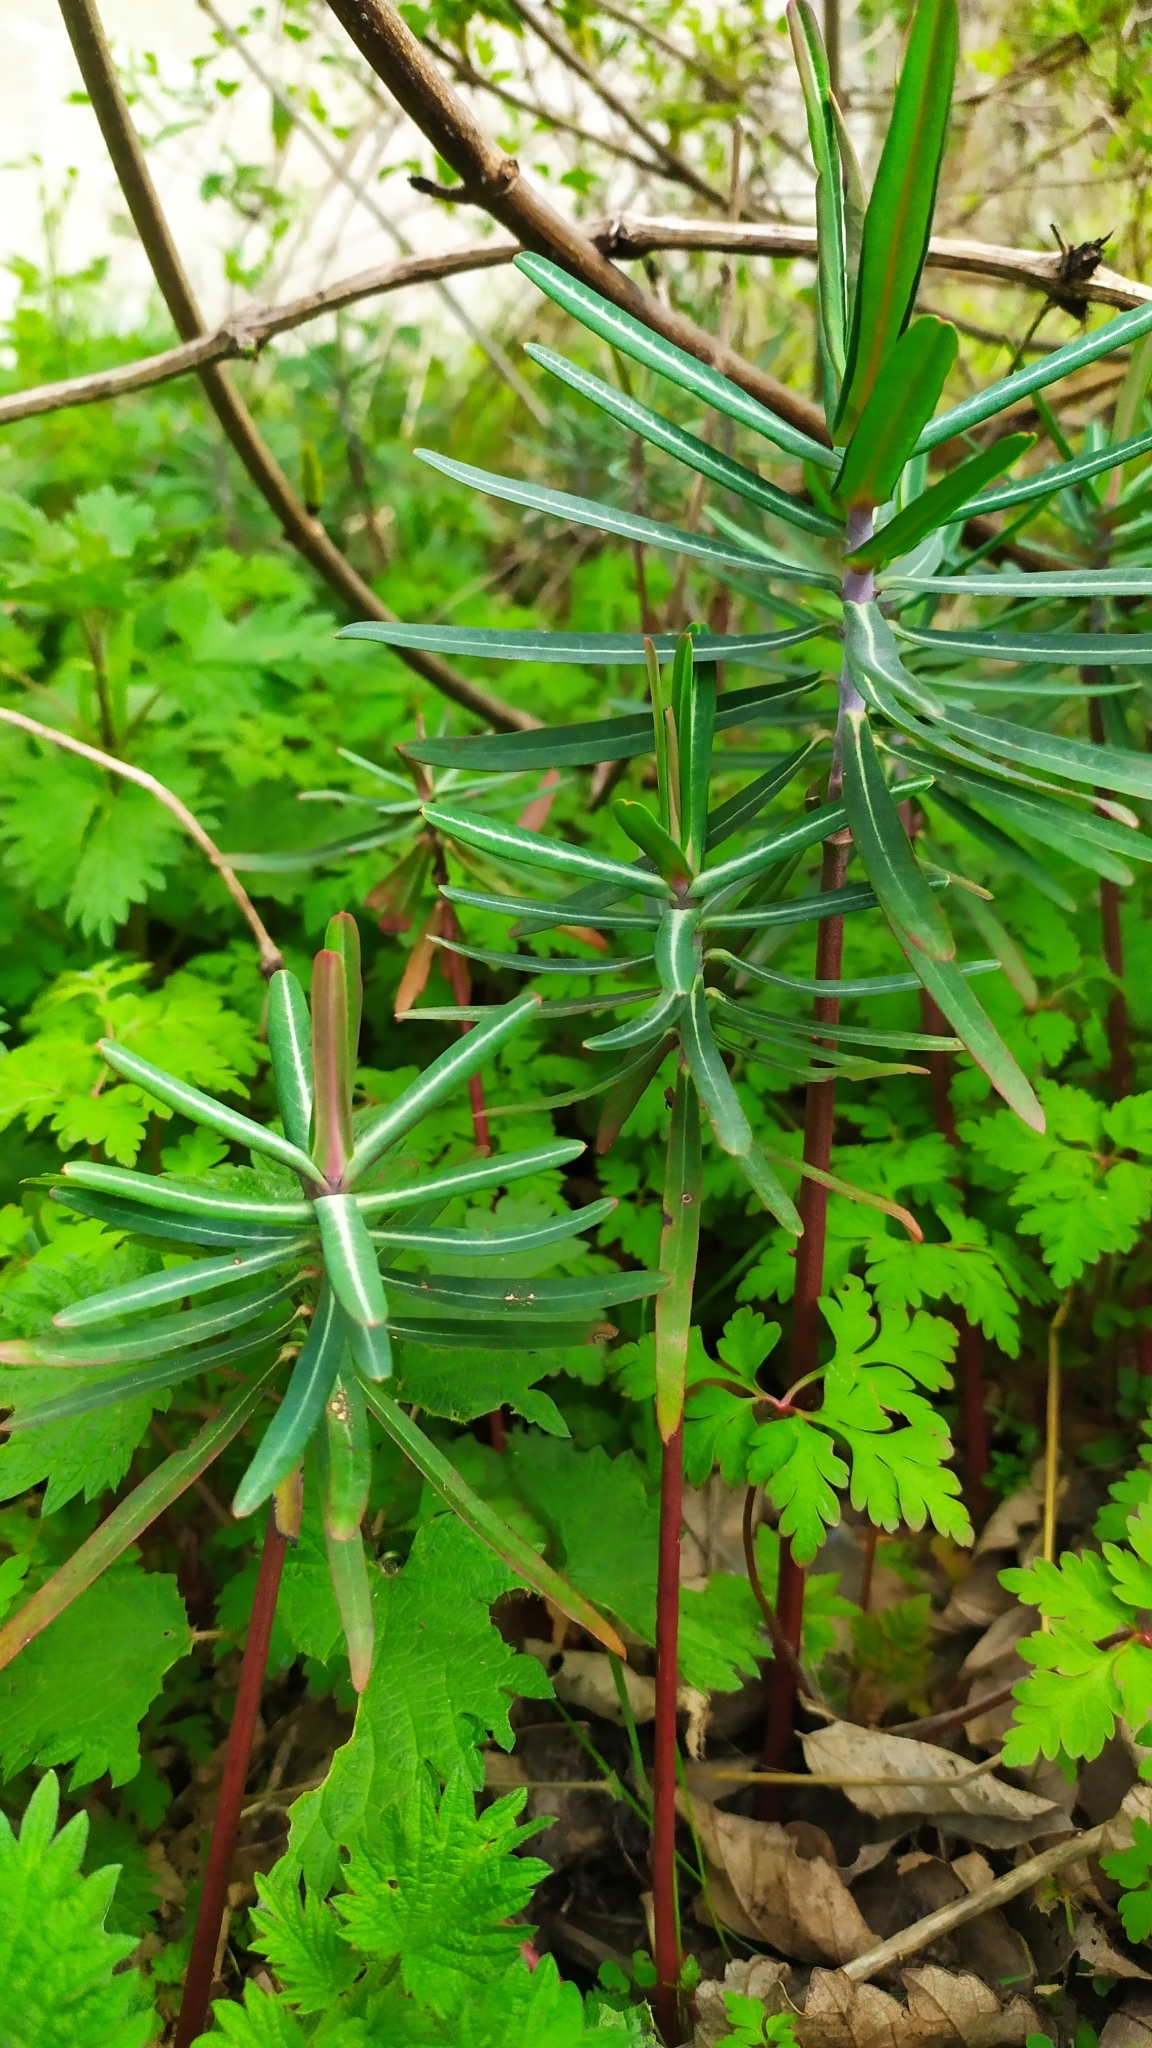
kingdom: Plantae
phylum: Tracheophyta
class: Magnoliopsida
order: Malpighiales
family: Euphorbiaceae
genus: Euphorbia
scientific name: Euphorbia lathyris
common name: Caper spurge
